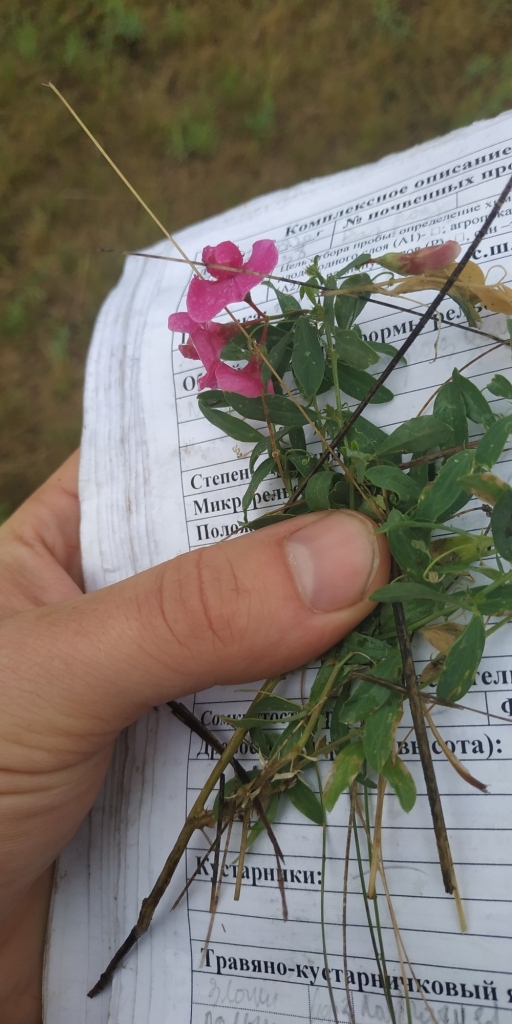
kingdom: Plantae
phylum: Tracheophyta
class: Magnoliopsida
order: Fabales
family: Fabaceae
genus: Lathyrus
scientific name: Lathyrus tuberosus
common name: Tuberous pea
